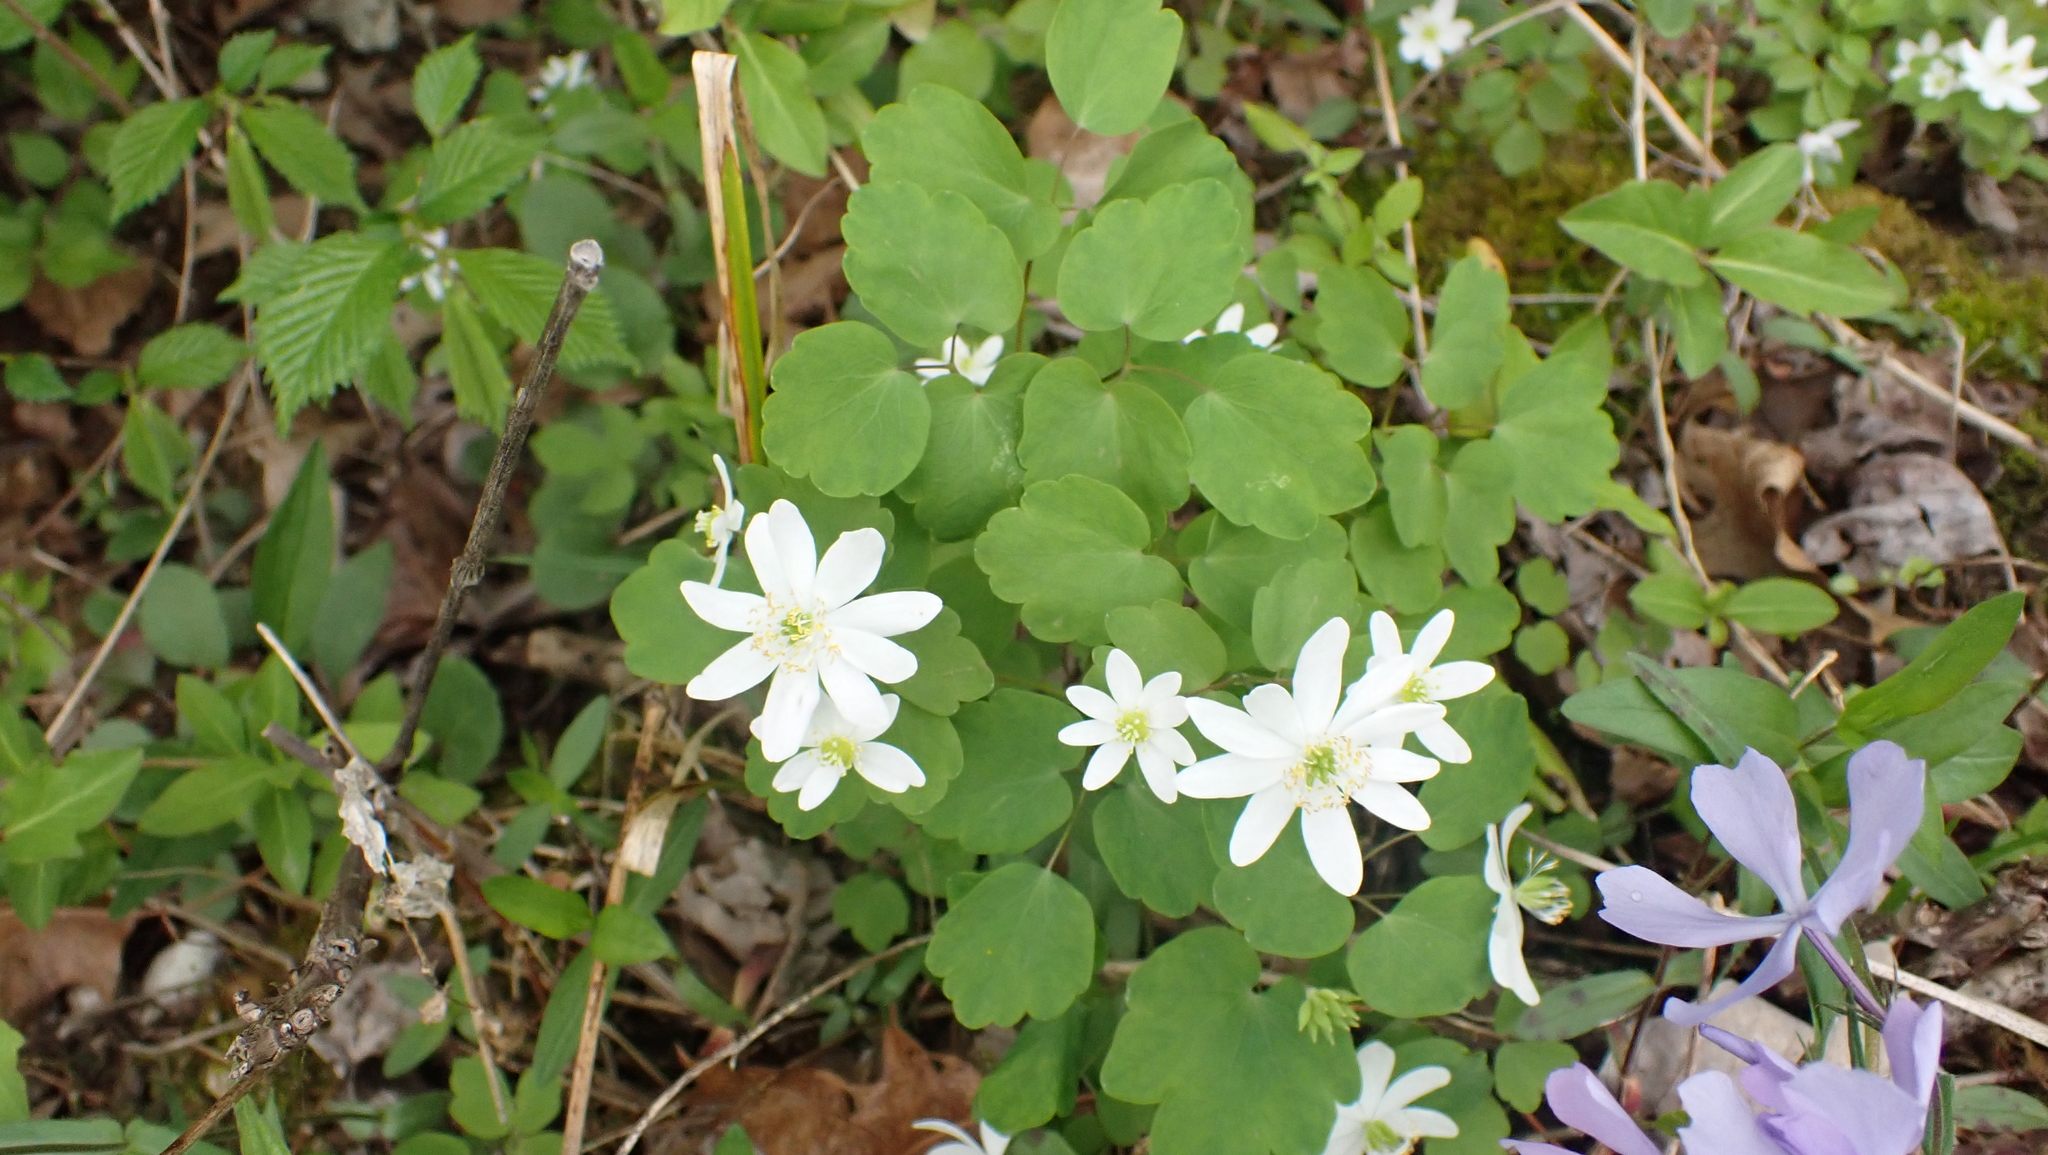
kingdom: Plantae
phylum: Tracheophyta
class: Magnoliopsida
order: Ranunculales
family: Ranunculaceae
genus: Thalictrum
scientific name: Thalictrum thalictroides
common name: Rue-anemone
